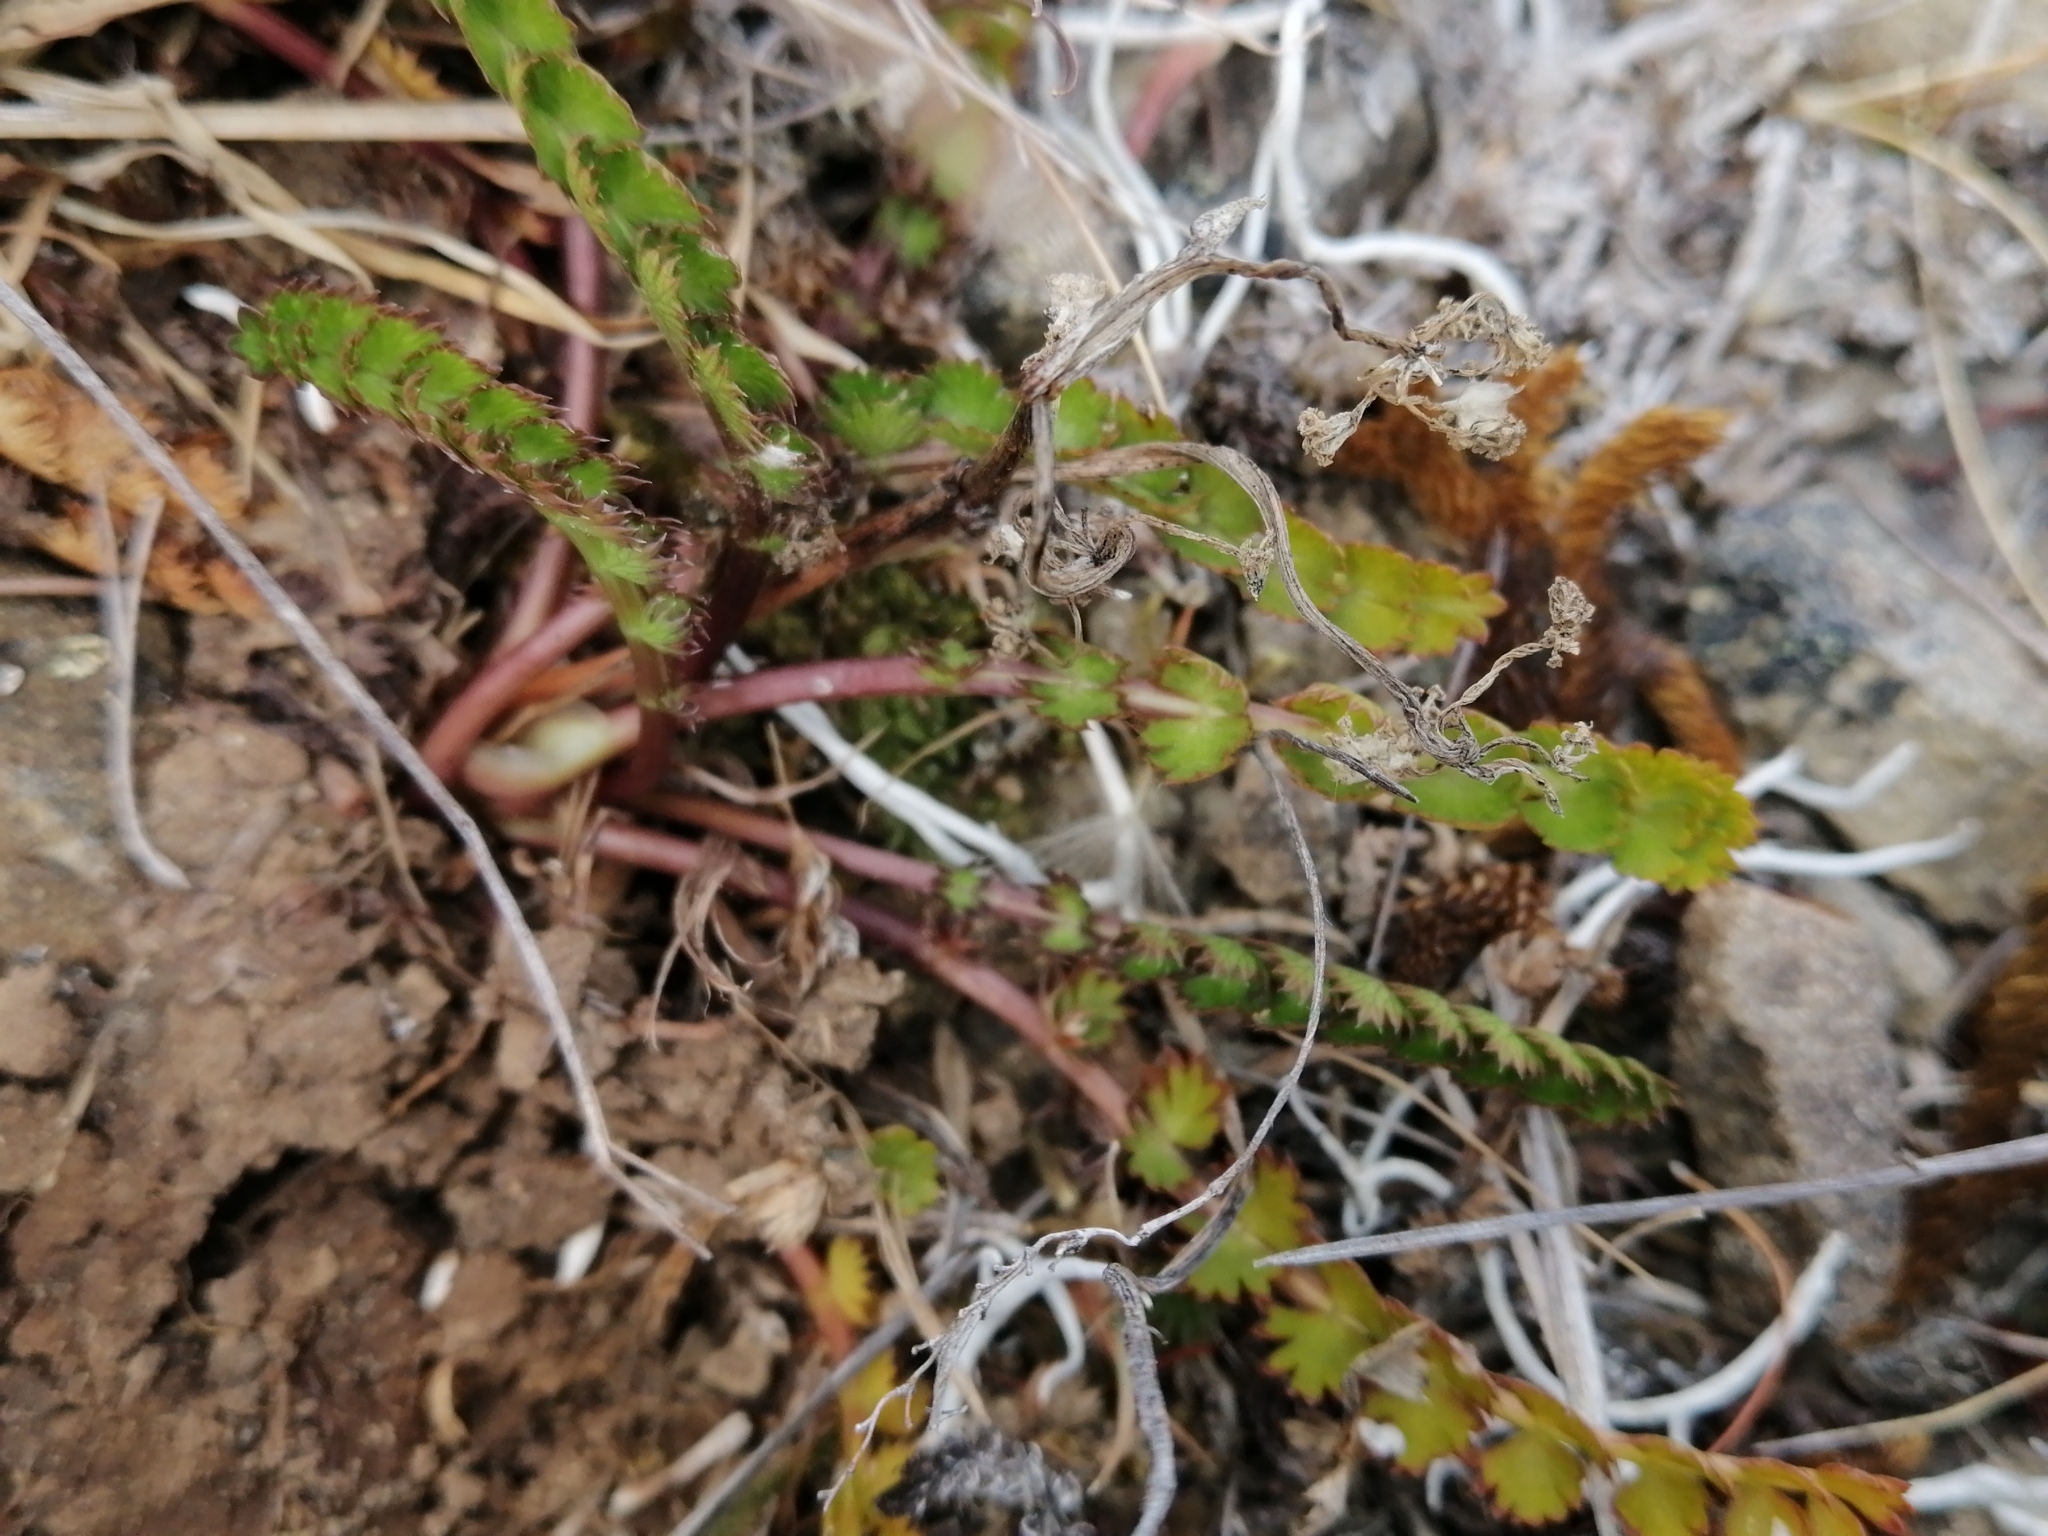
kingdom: Plantae
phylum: Tracheophyta
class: Magnoliopsida
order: Apiales
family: Apiaceae
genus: Anisotome
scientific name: Anisotome aromatica
